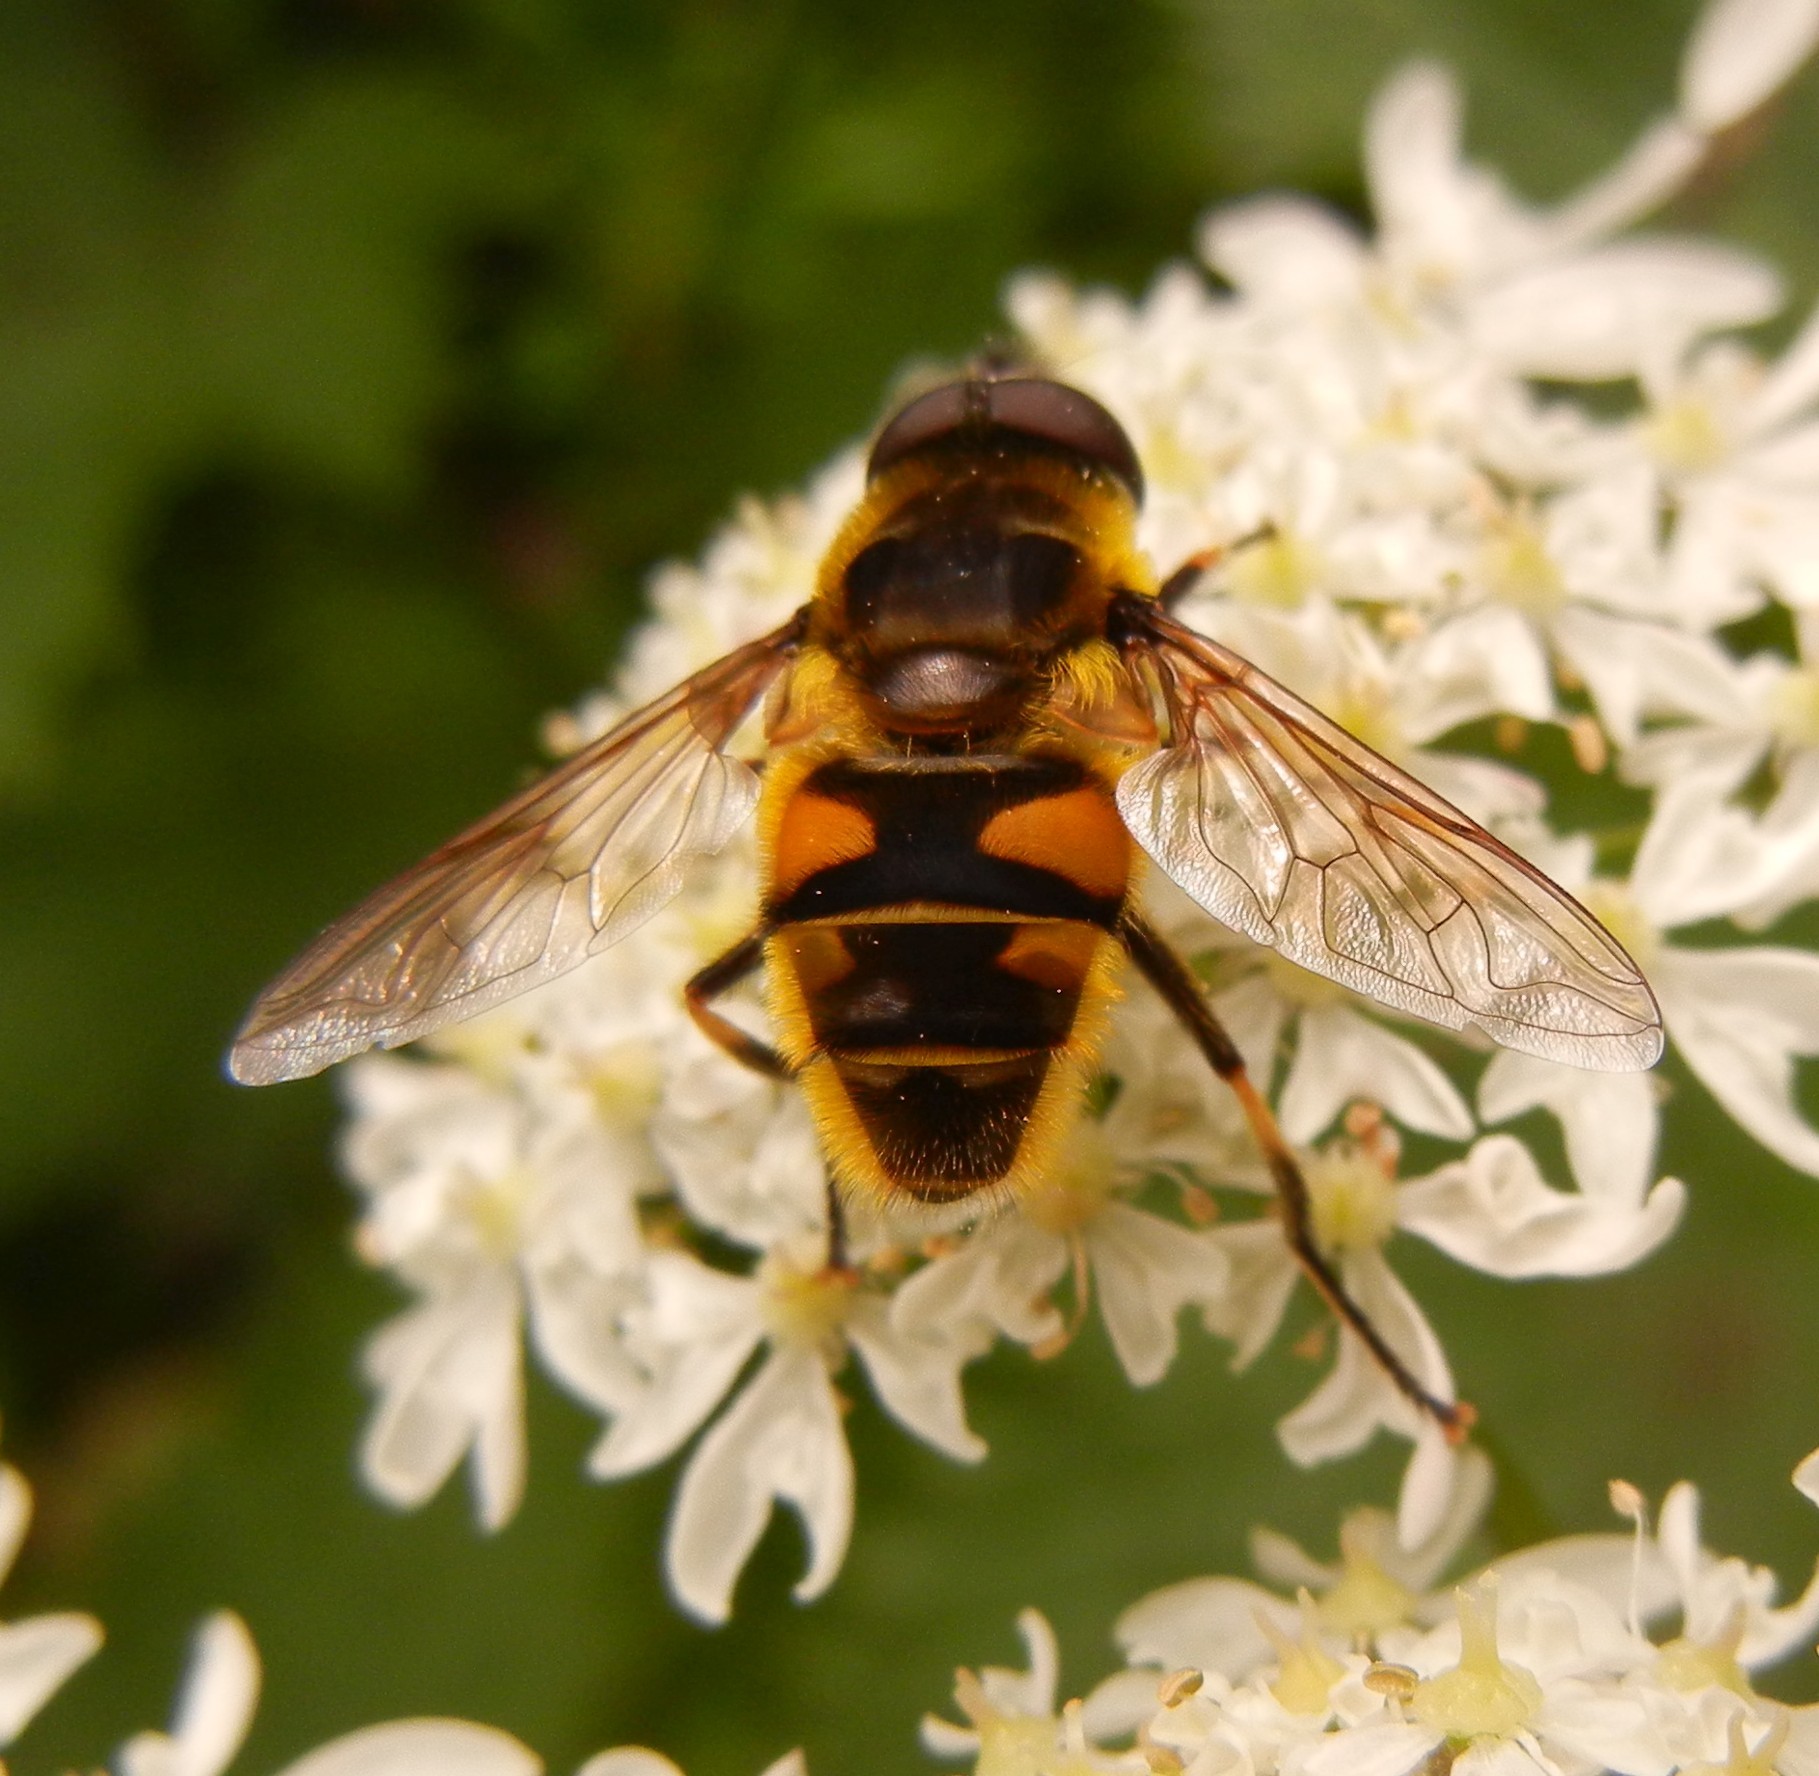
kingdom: Animalia
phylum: Arthropoda
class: Insecta
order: Diptera
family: Syrphidae
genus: Myathropa
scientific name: Myathropa florea
